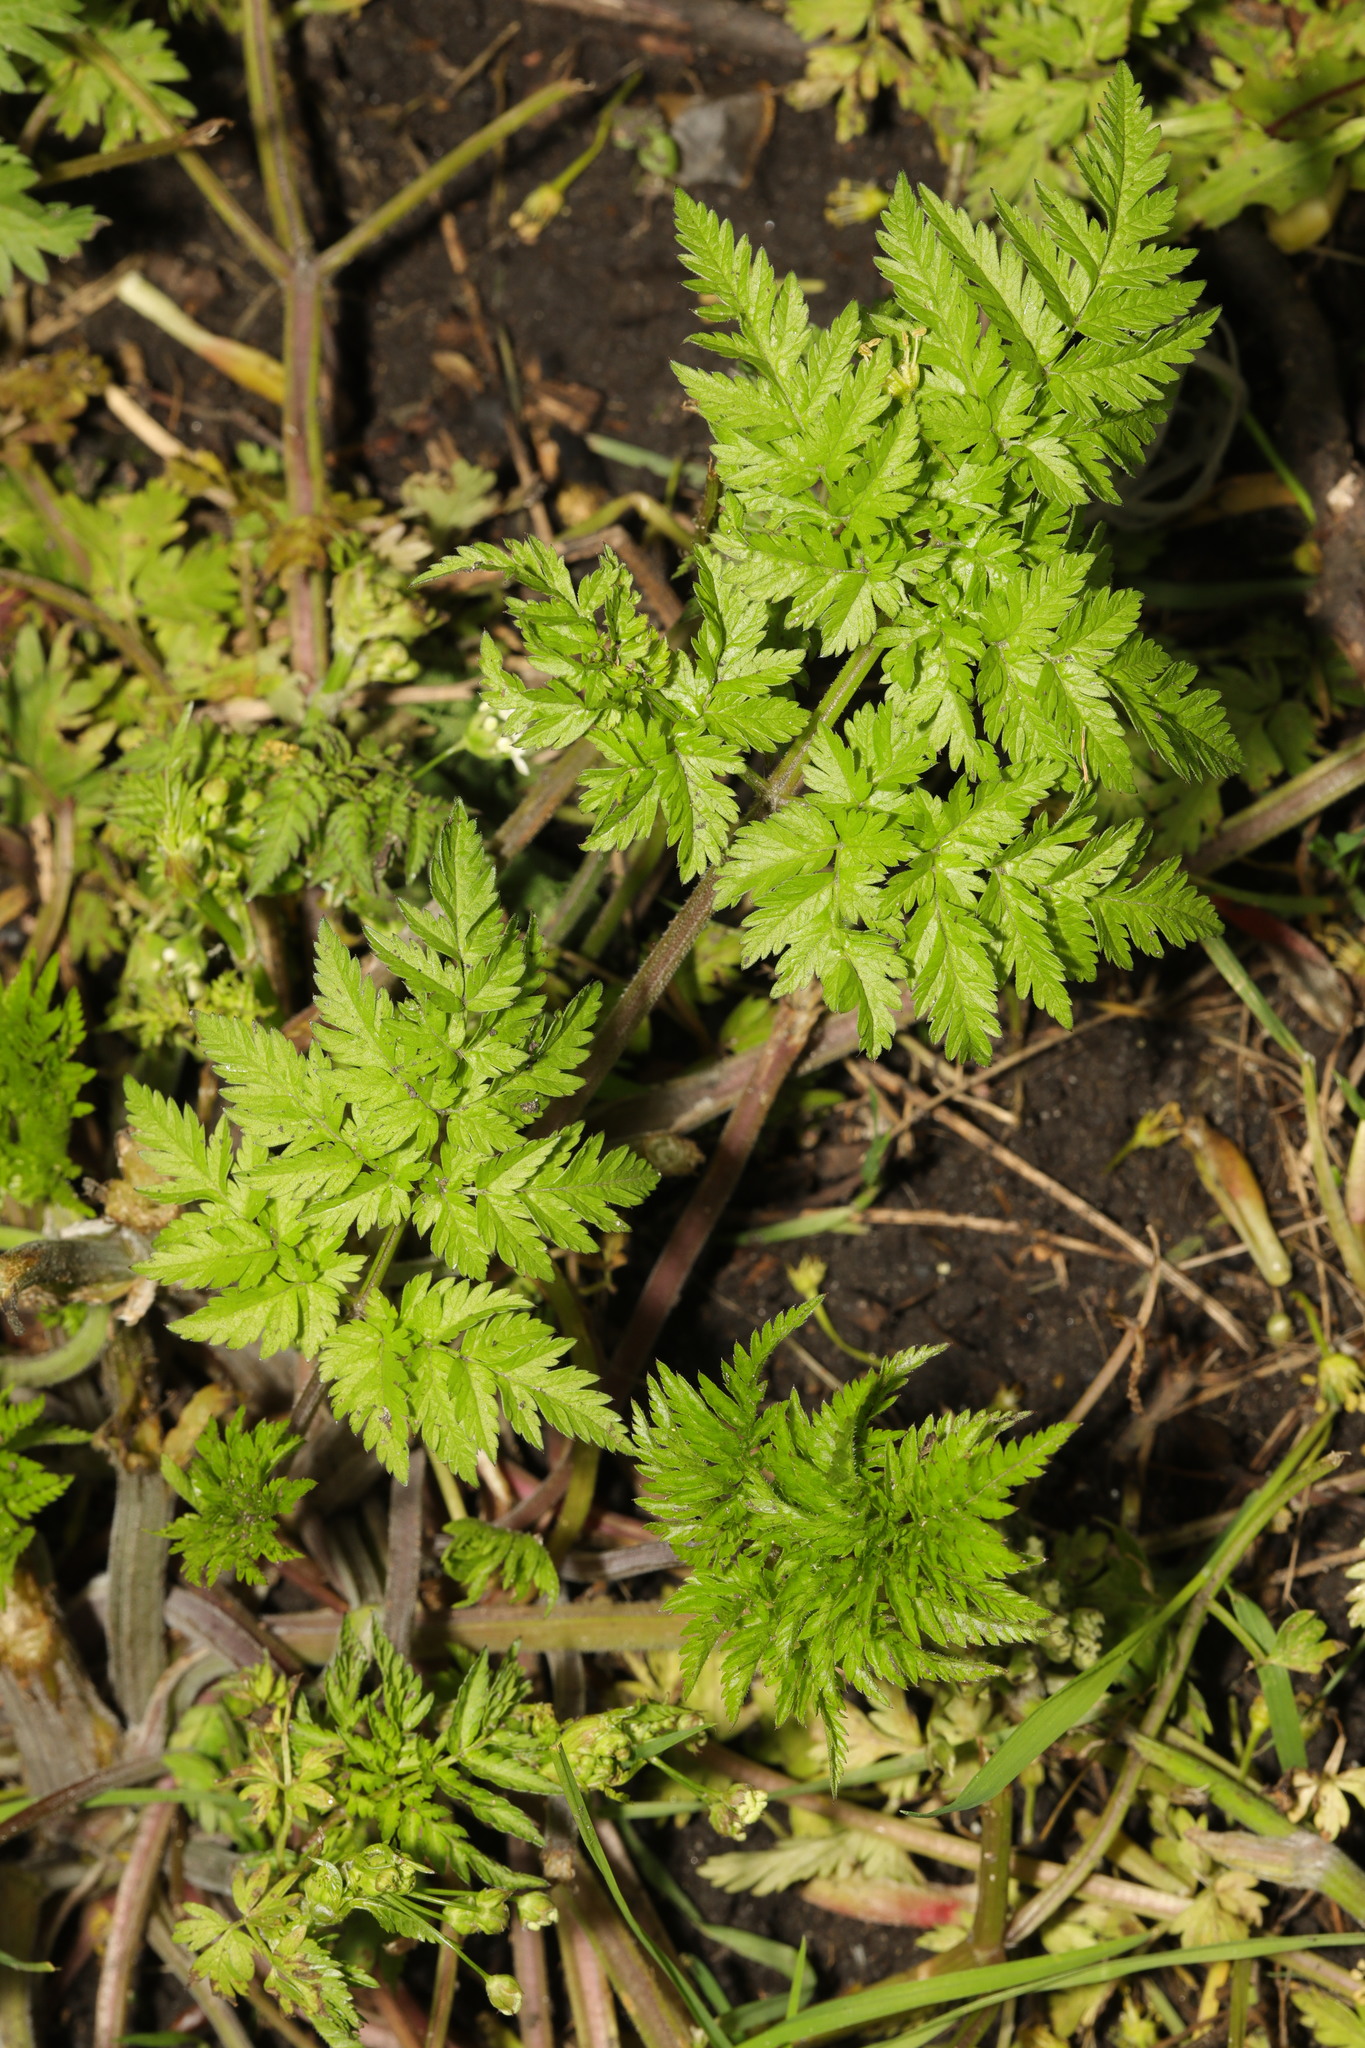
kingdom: Plantae
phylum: Tracheophyta
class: Magnoliopsida
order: Apiales
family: Apiaceae
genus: Anthriscus
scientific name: Anthriscus sylvestris
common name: Cow parsley
